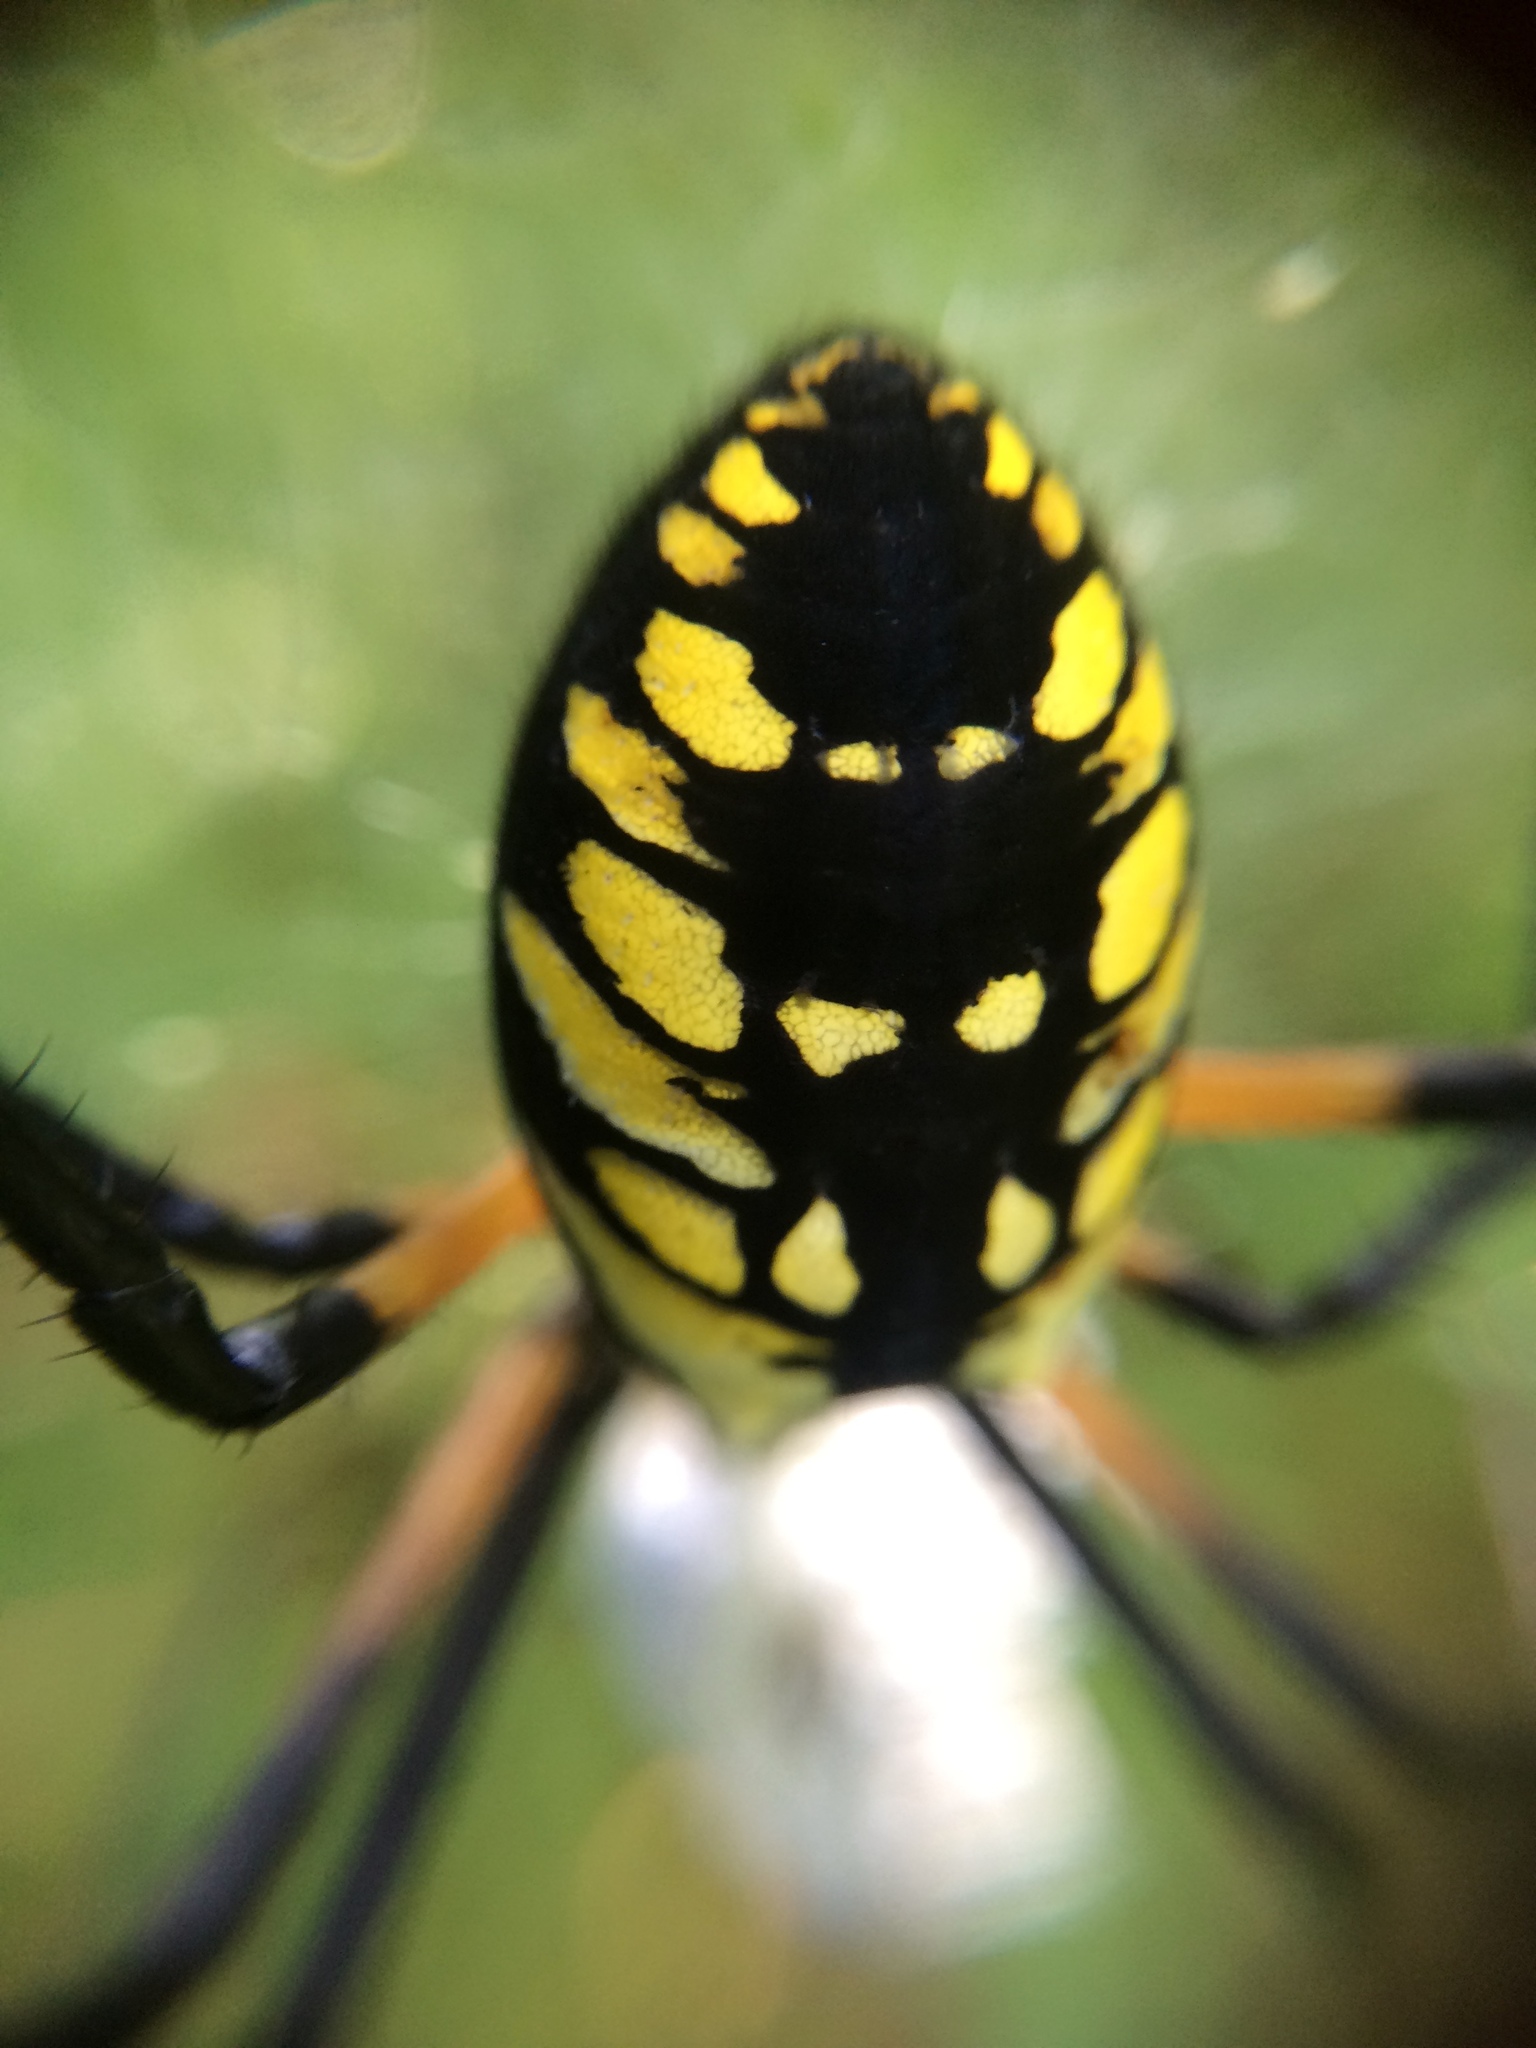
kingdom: Animalia
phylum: Arthropoda
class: Arachnida
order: Araneae
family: Araneidae
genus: Argiope
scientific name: Argiope aurantia
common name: Orb weavers
